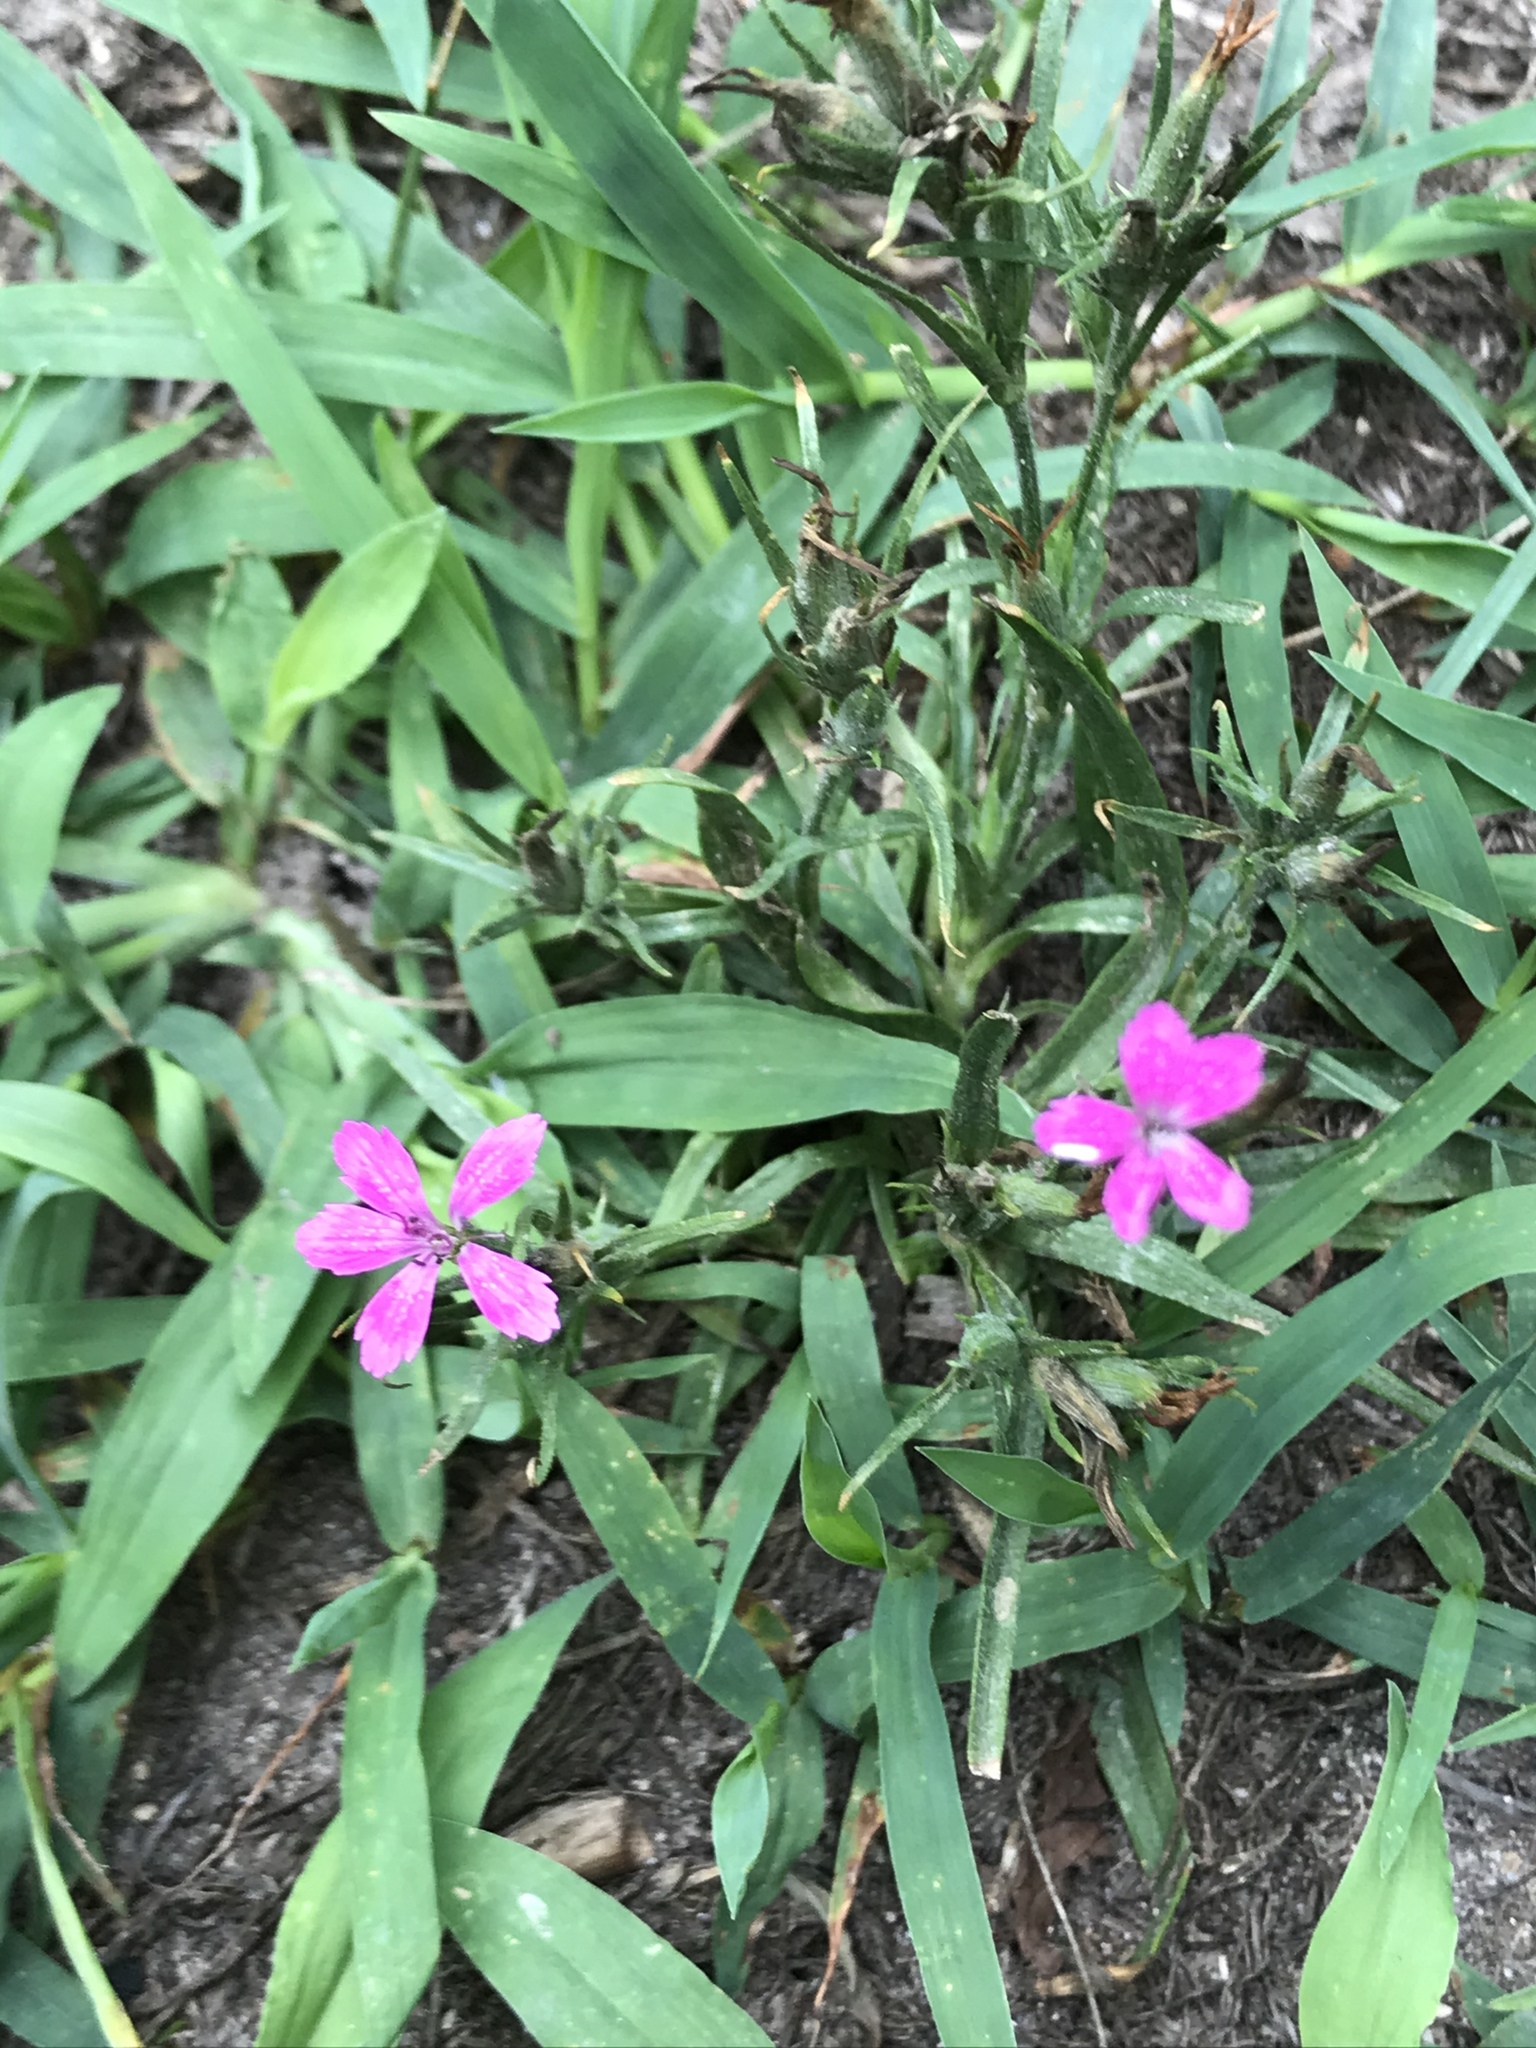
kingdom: Plantae
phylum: Tracheophyta
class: Magnoliopsida
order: Caryophyllales
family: Caryophyllaceae
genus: Dianthus
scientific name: Dianthus armeria
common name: Deptford pink
